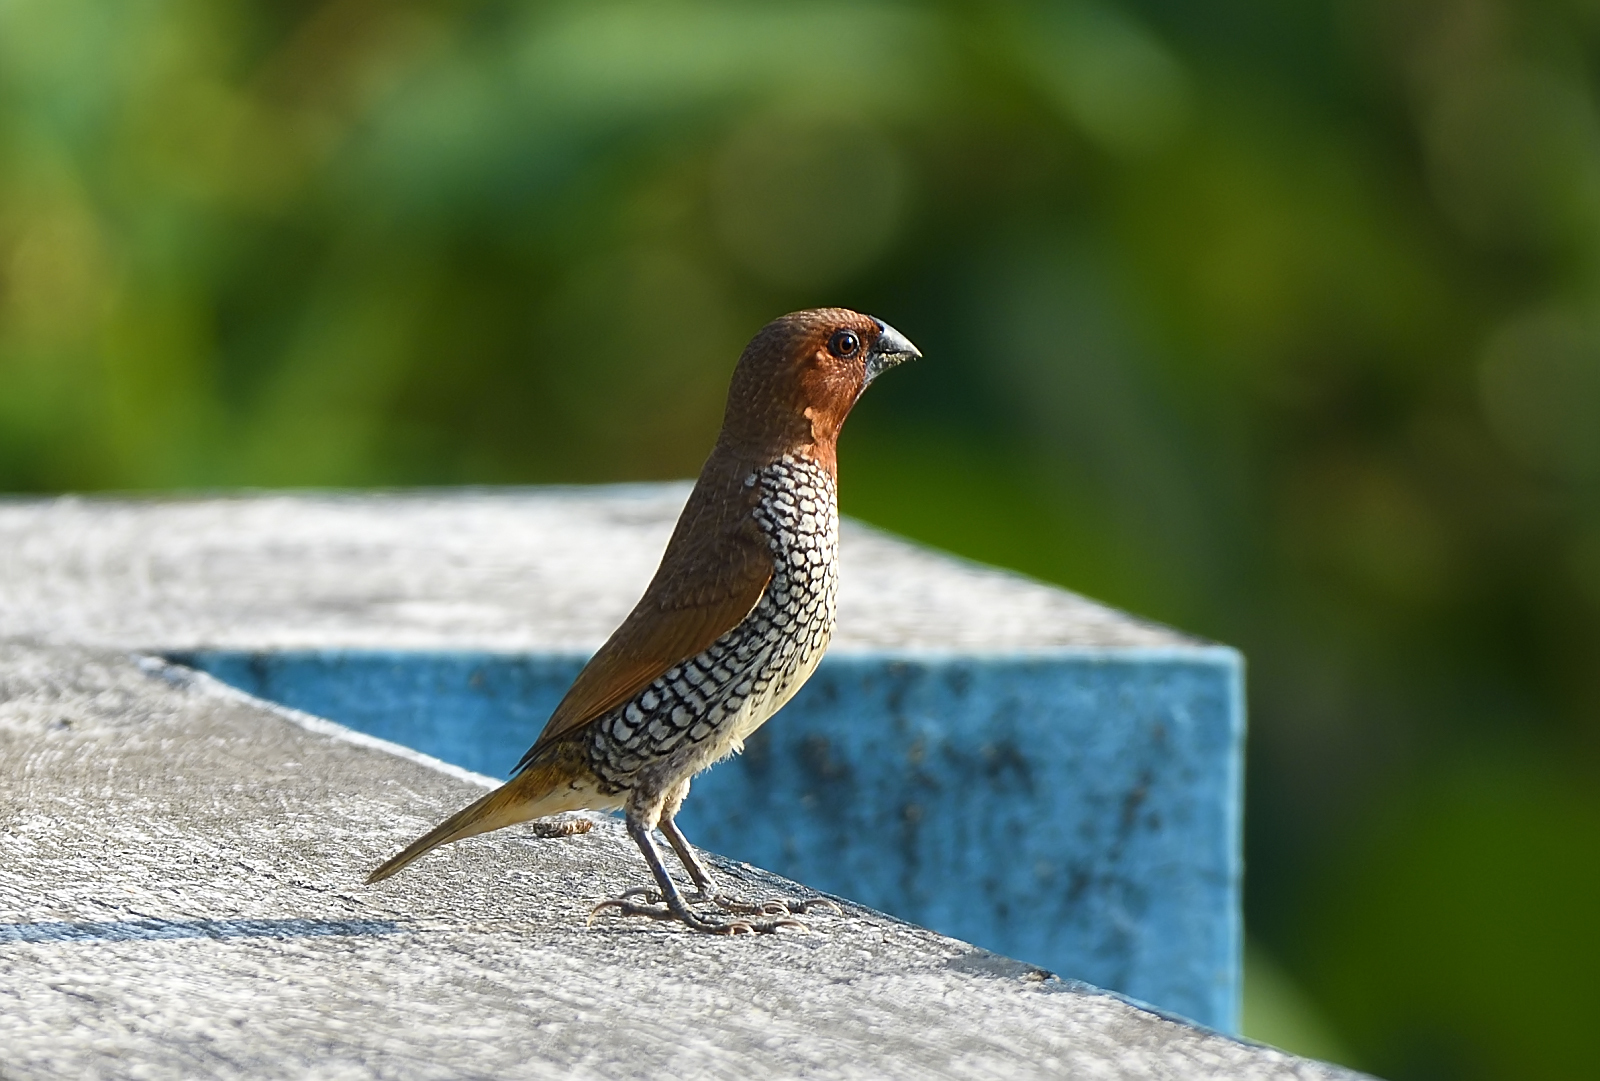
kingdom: Animalia
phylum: Chordata
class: Aves
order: Passeriformes
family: Estrildidae
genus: Lonchura
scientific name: Lonchura punctulata
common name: Scaly-breasted munia
